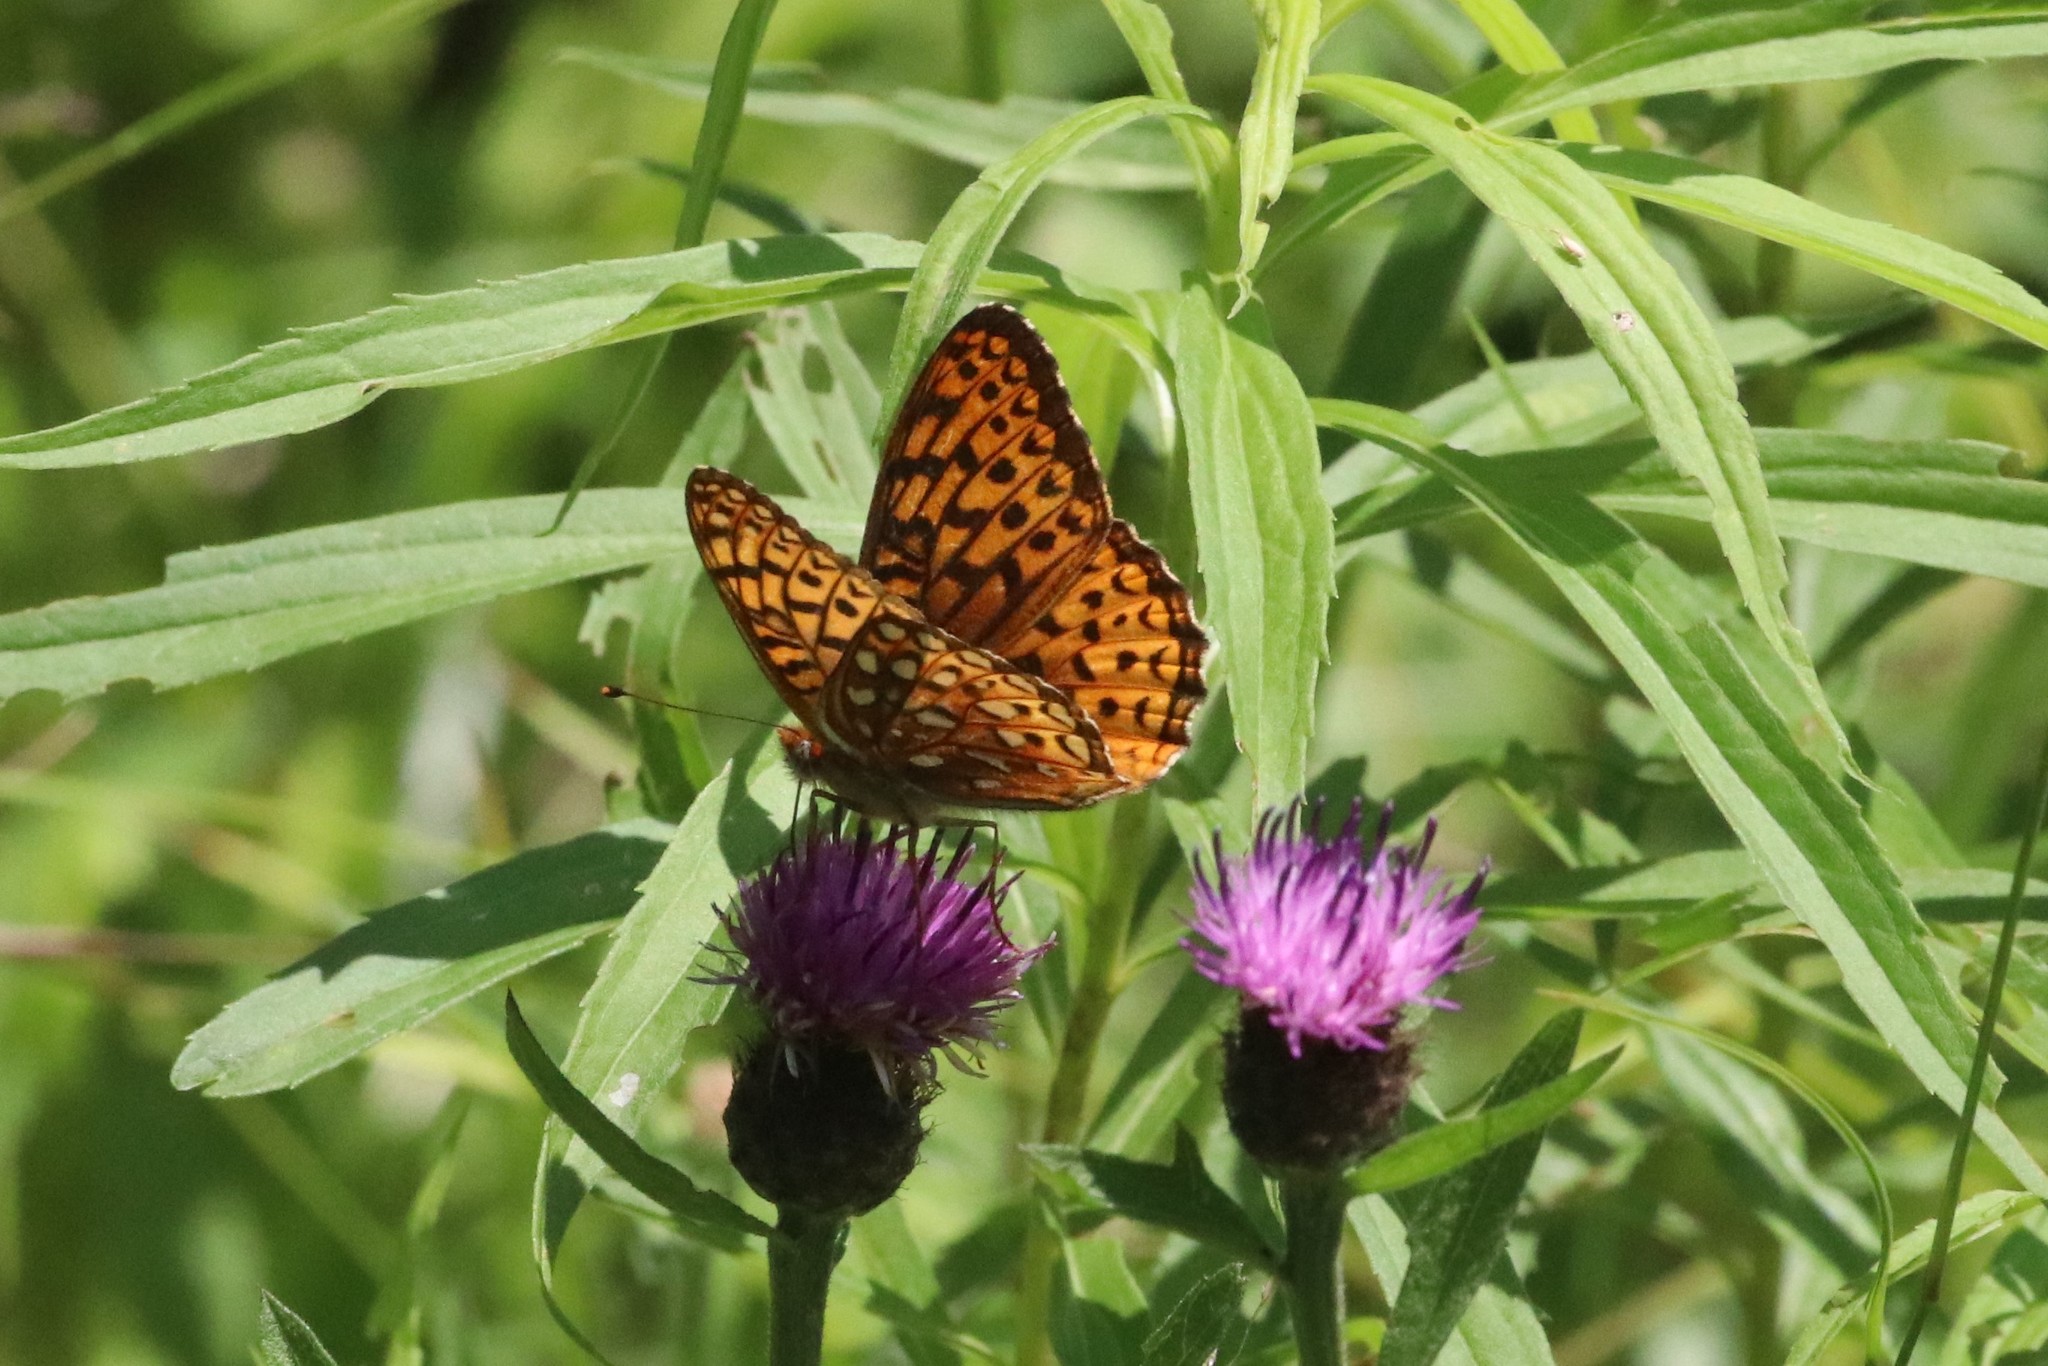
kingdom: Animalia
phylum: Arthropoda
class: Insecta
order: Lepidoptera
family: Nymphalidae
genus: Speyeria
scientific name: Speyeria atlantis
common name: Atlantis fritillary
